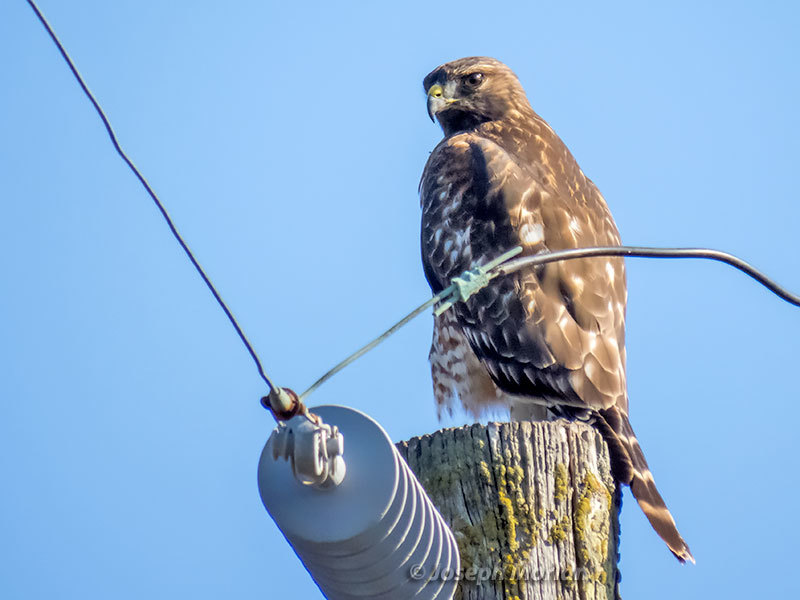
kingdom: Animalia
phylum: Chordata
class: Aves
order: Accipitriformes
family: Accipitridae
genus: Buteo
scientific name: Buteo lineatus
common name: Red-shouldered hawk
